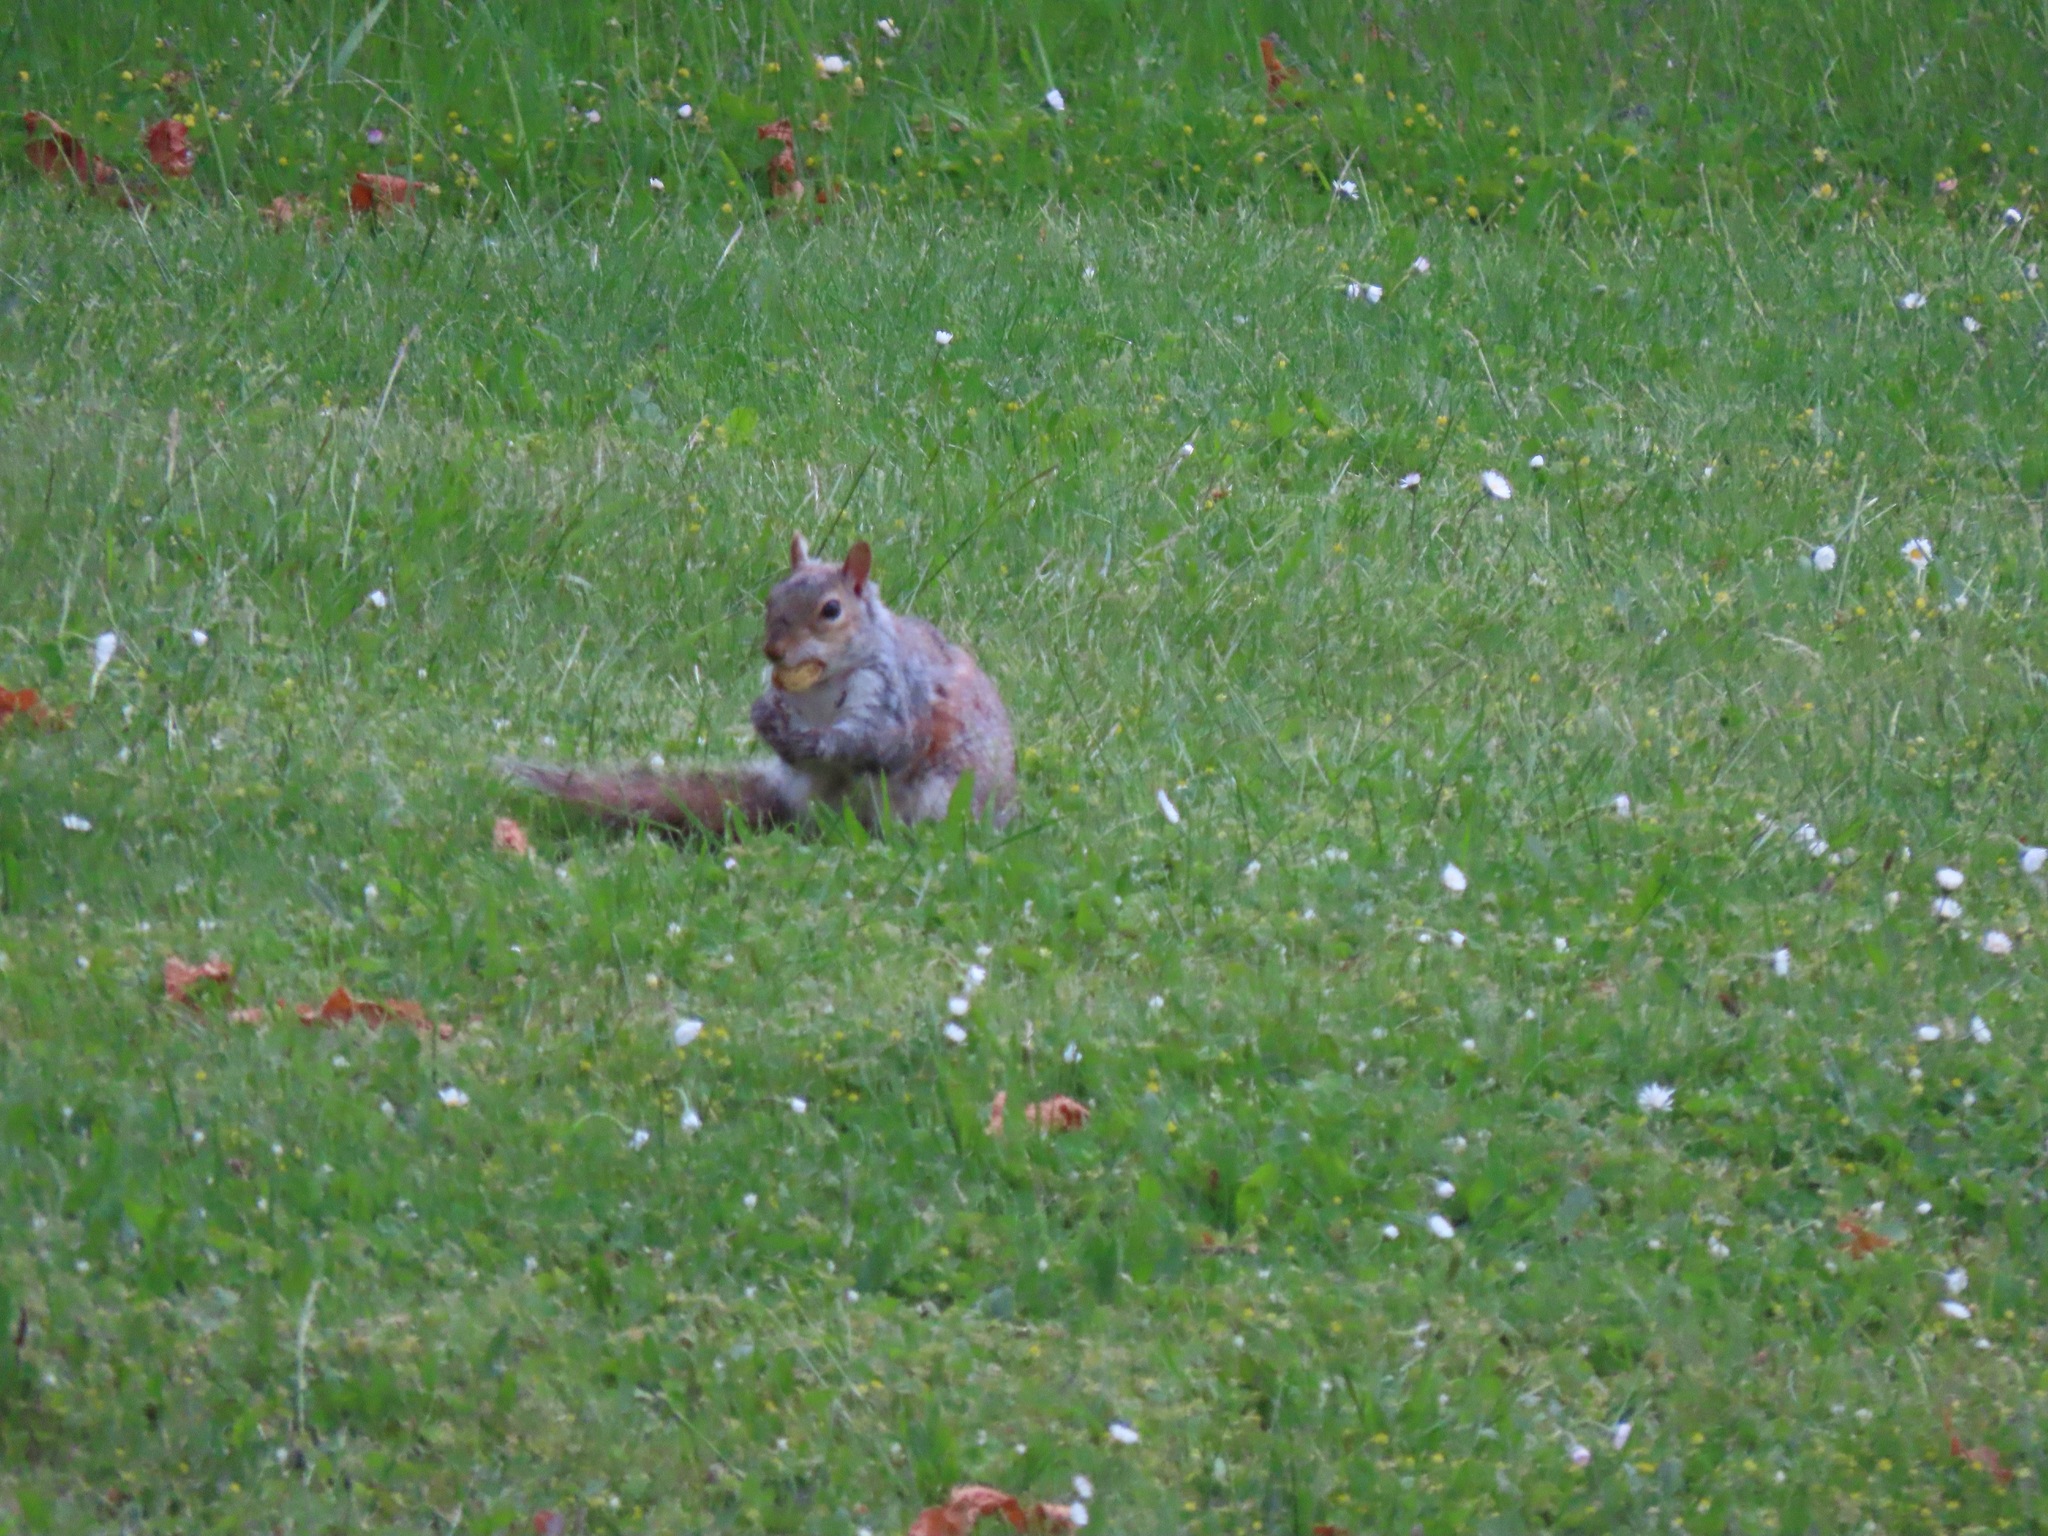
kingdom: Animalia
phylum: Chordata
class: Mammalia
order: Rodentia
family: Sciuridae
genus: Sciurus
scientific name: Sciurus carolinensis
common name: Eastern gray squirrel
